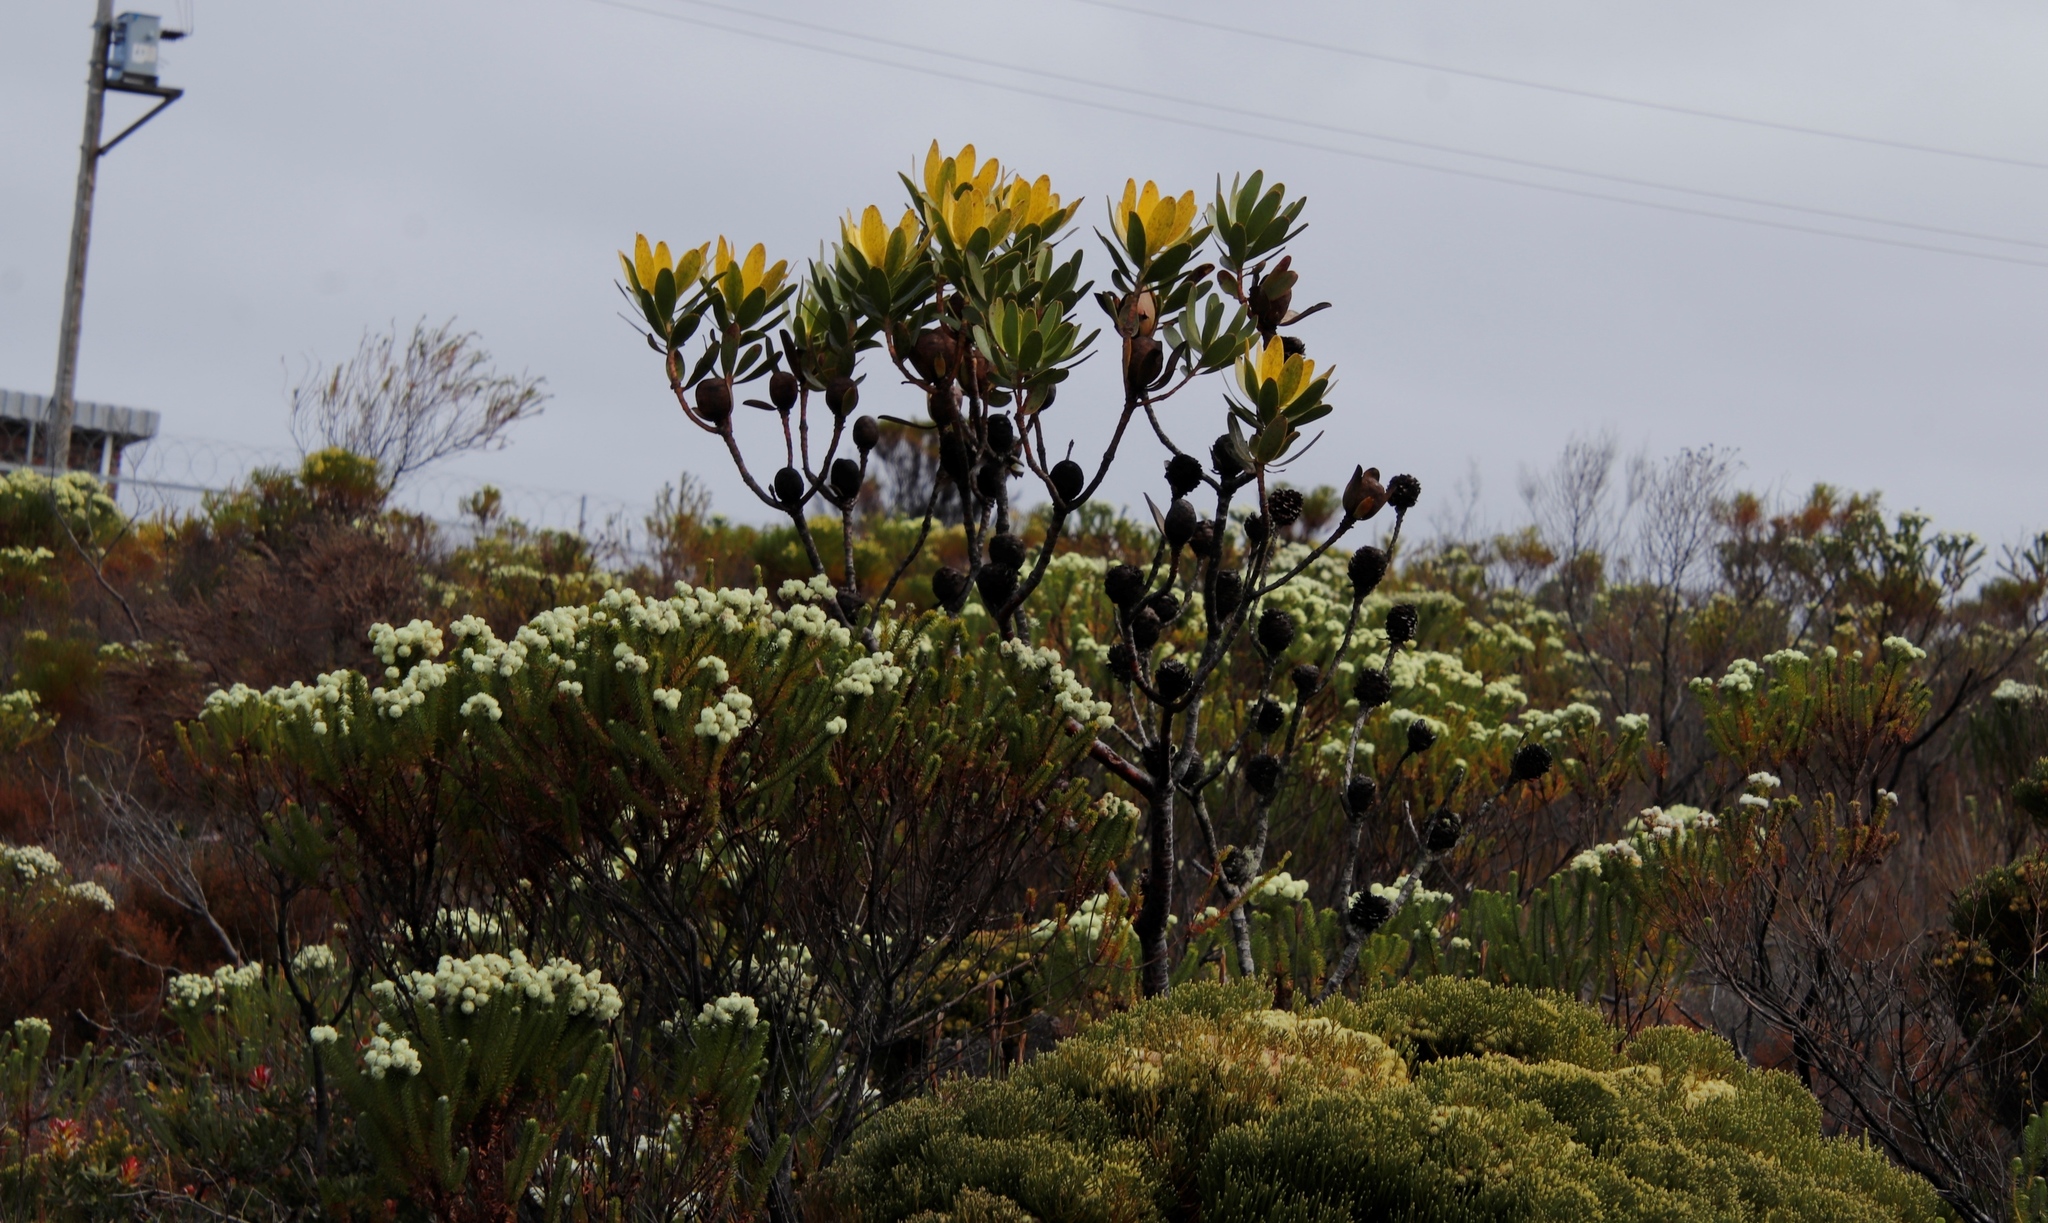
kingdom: Plantae
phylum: Tracheophyta
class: Magnoliopsida
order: Proteales
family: Proteaceae
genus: Leucadendron
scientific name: Leucadendron gandogeri
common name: Broad-leaf conebush
